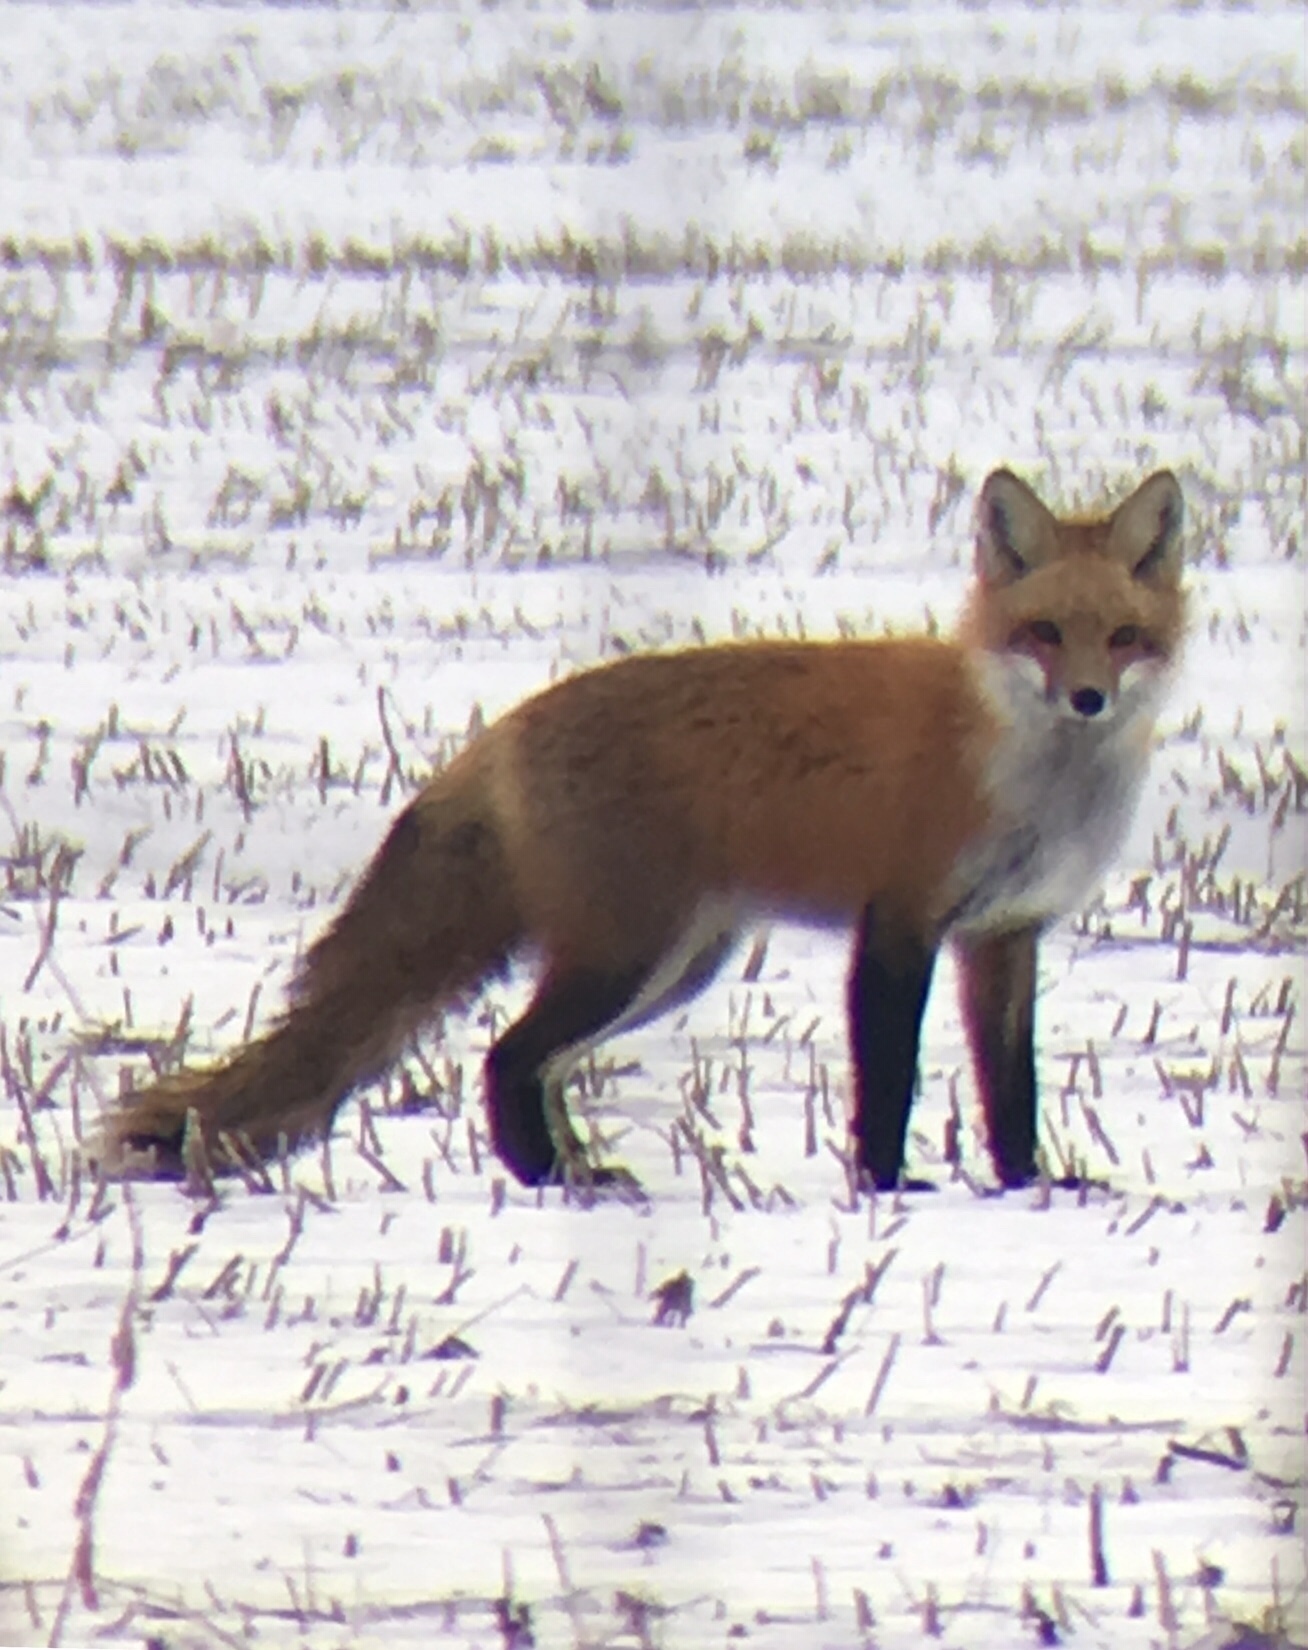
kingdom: Animalia
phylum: Chordata
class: Mammalia
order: Carnivora
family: Canidae
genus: Vulpes
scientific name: Vulpes vulpes
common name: Red fox
